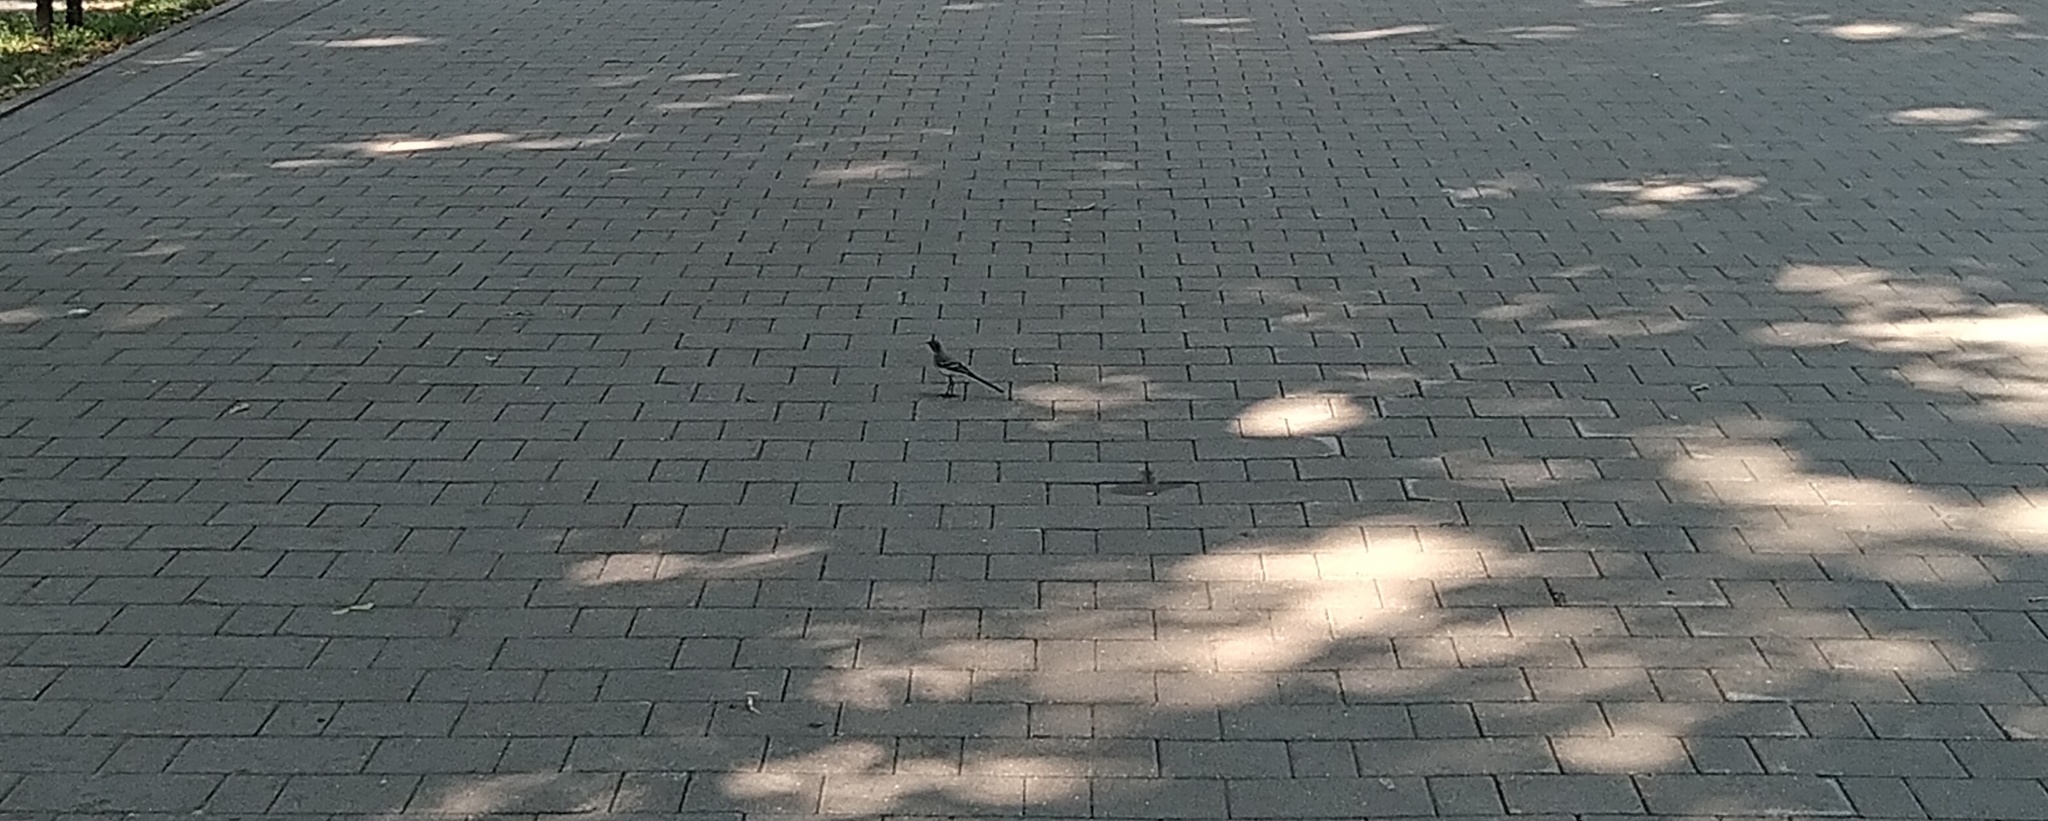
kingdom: Animalia
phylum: Chordata
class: Aves
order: Passeriformes
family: Motacillidae
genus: Motacilla
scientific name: Motacilla alba
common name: White wagtail
